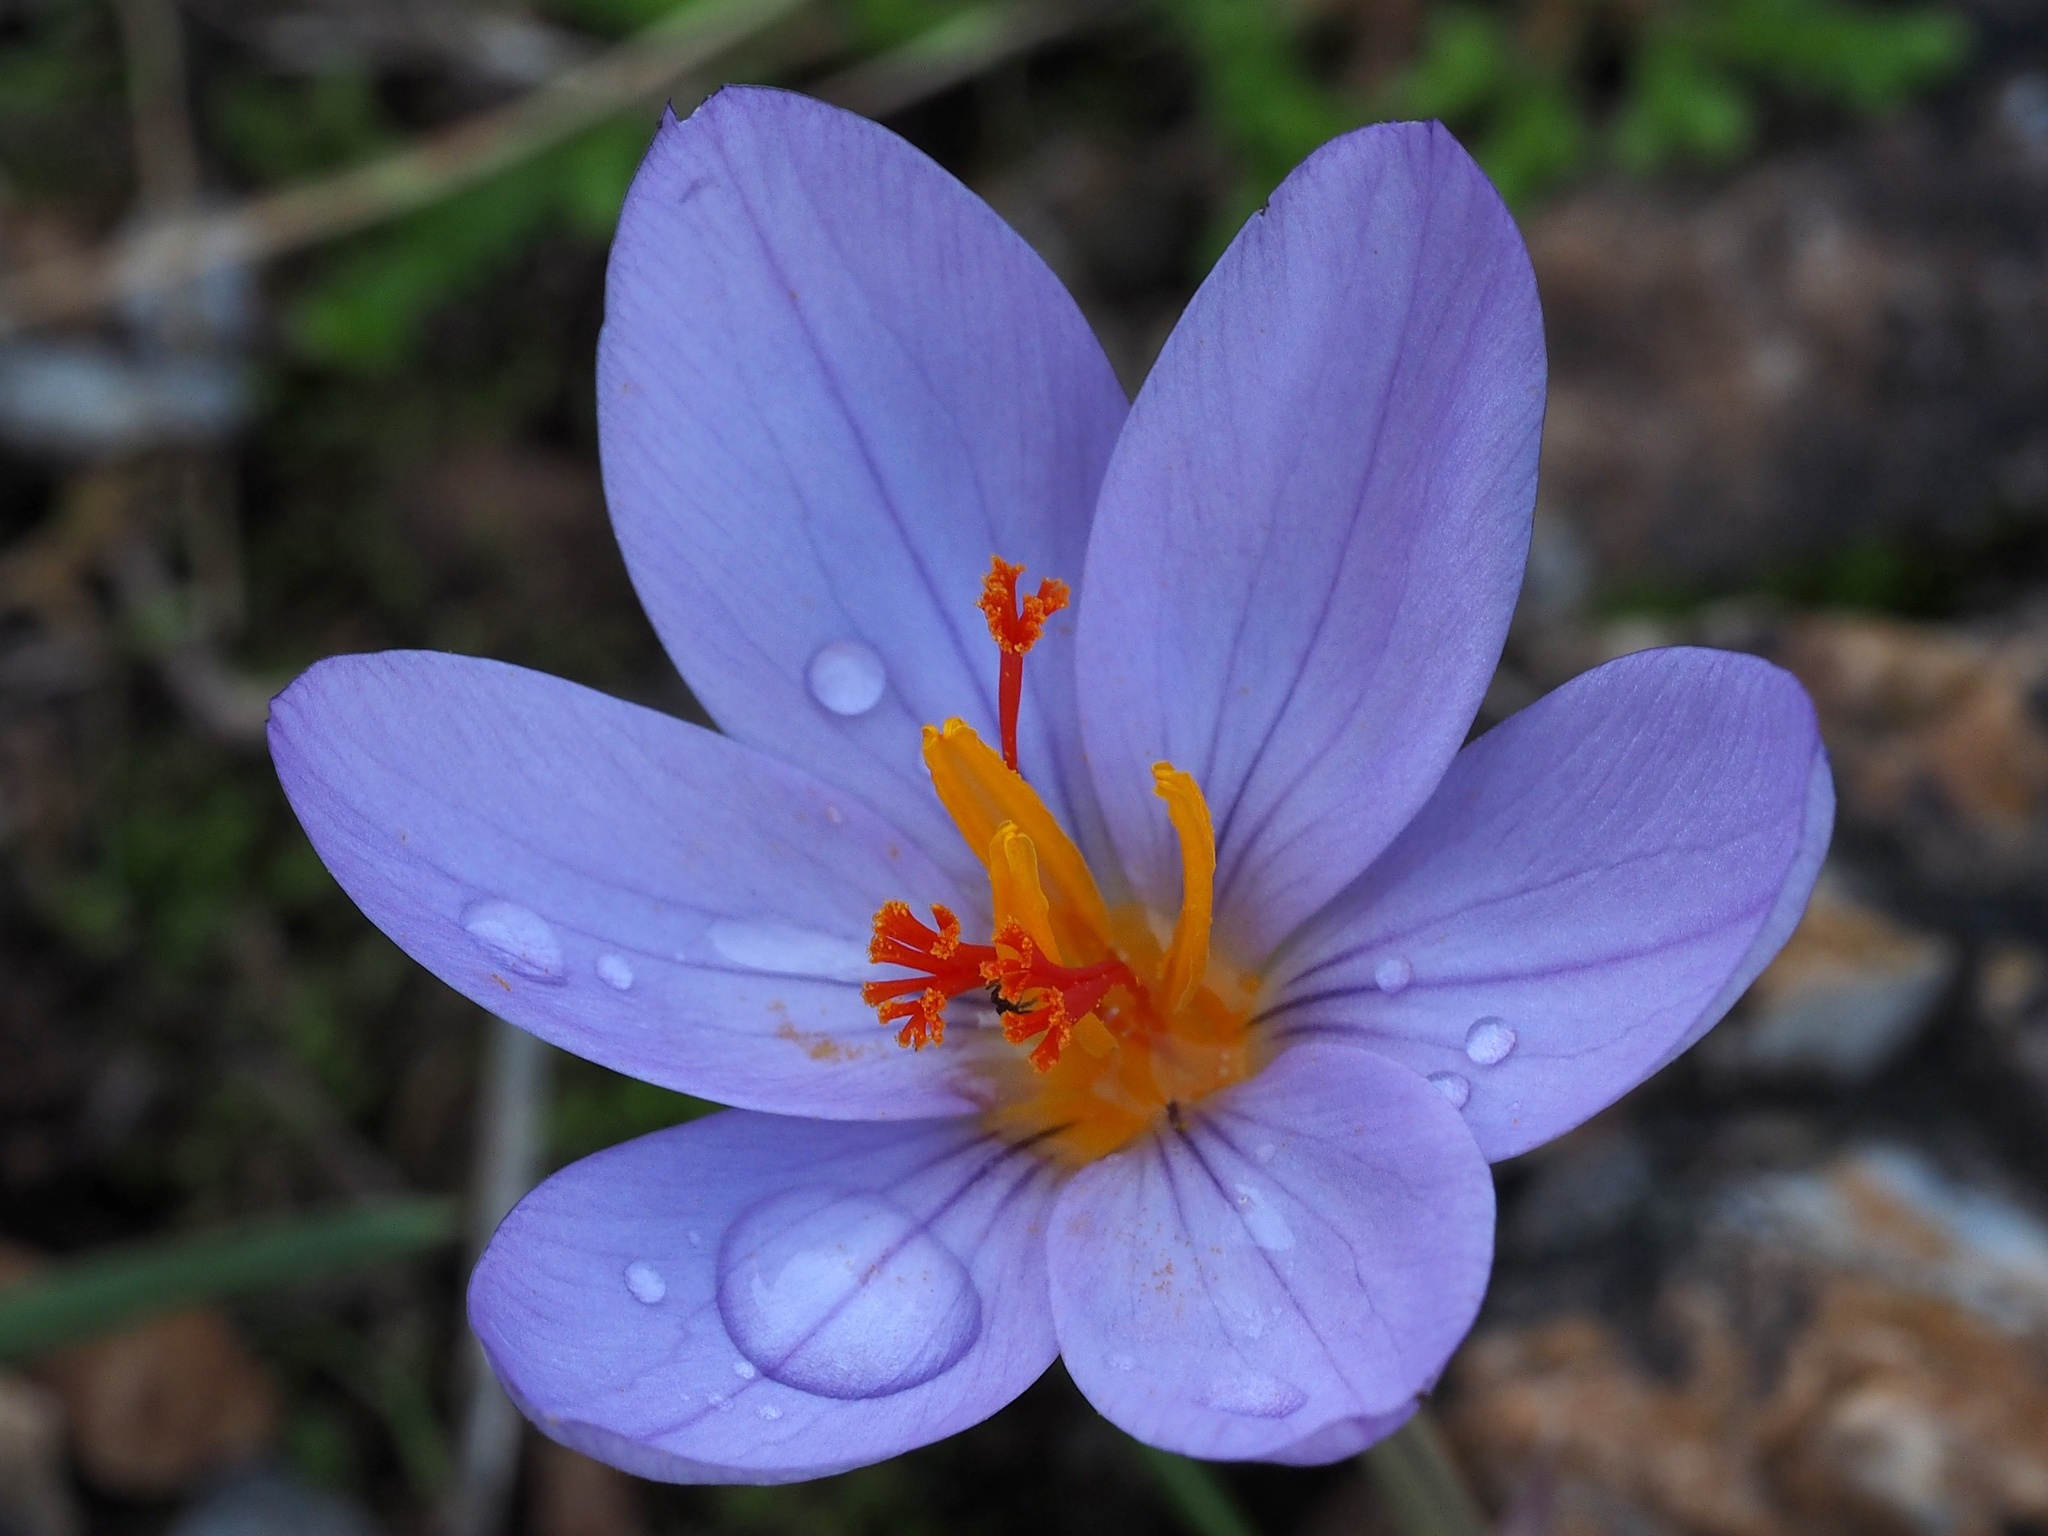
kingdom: Plantae
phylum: Tracheophyta
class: Liliopsida
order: Asparagales
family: Iridaceae
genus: Crocus
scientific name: Crocus longiflorus
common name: Italian crocus
